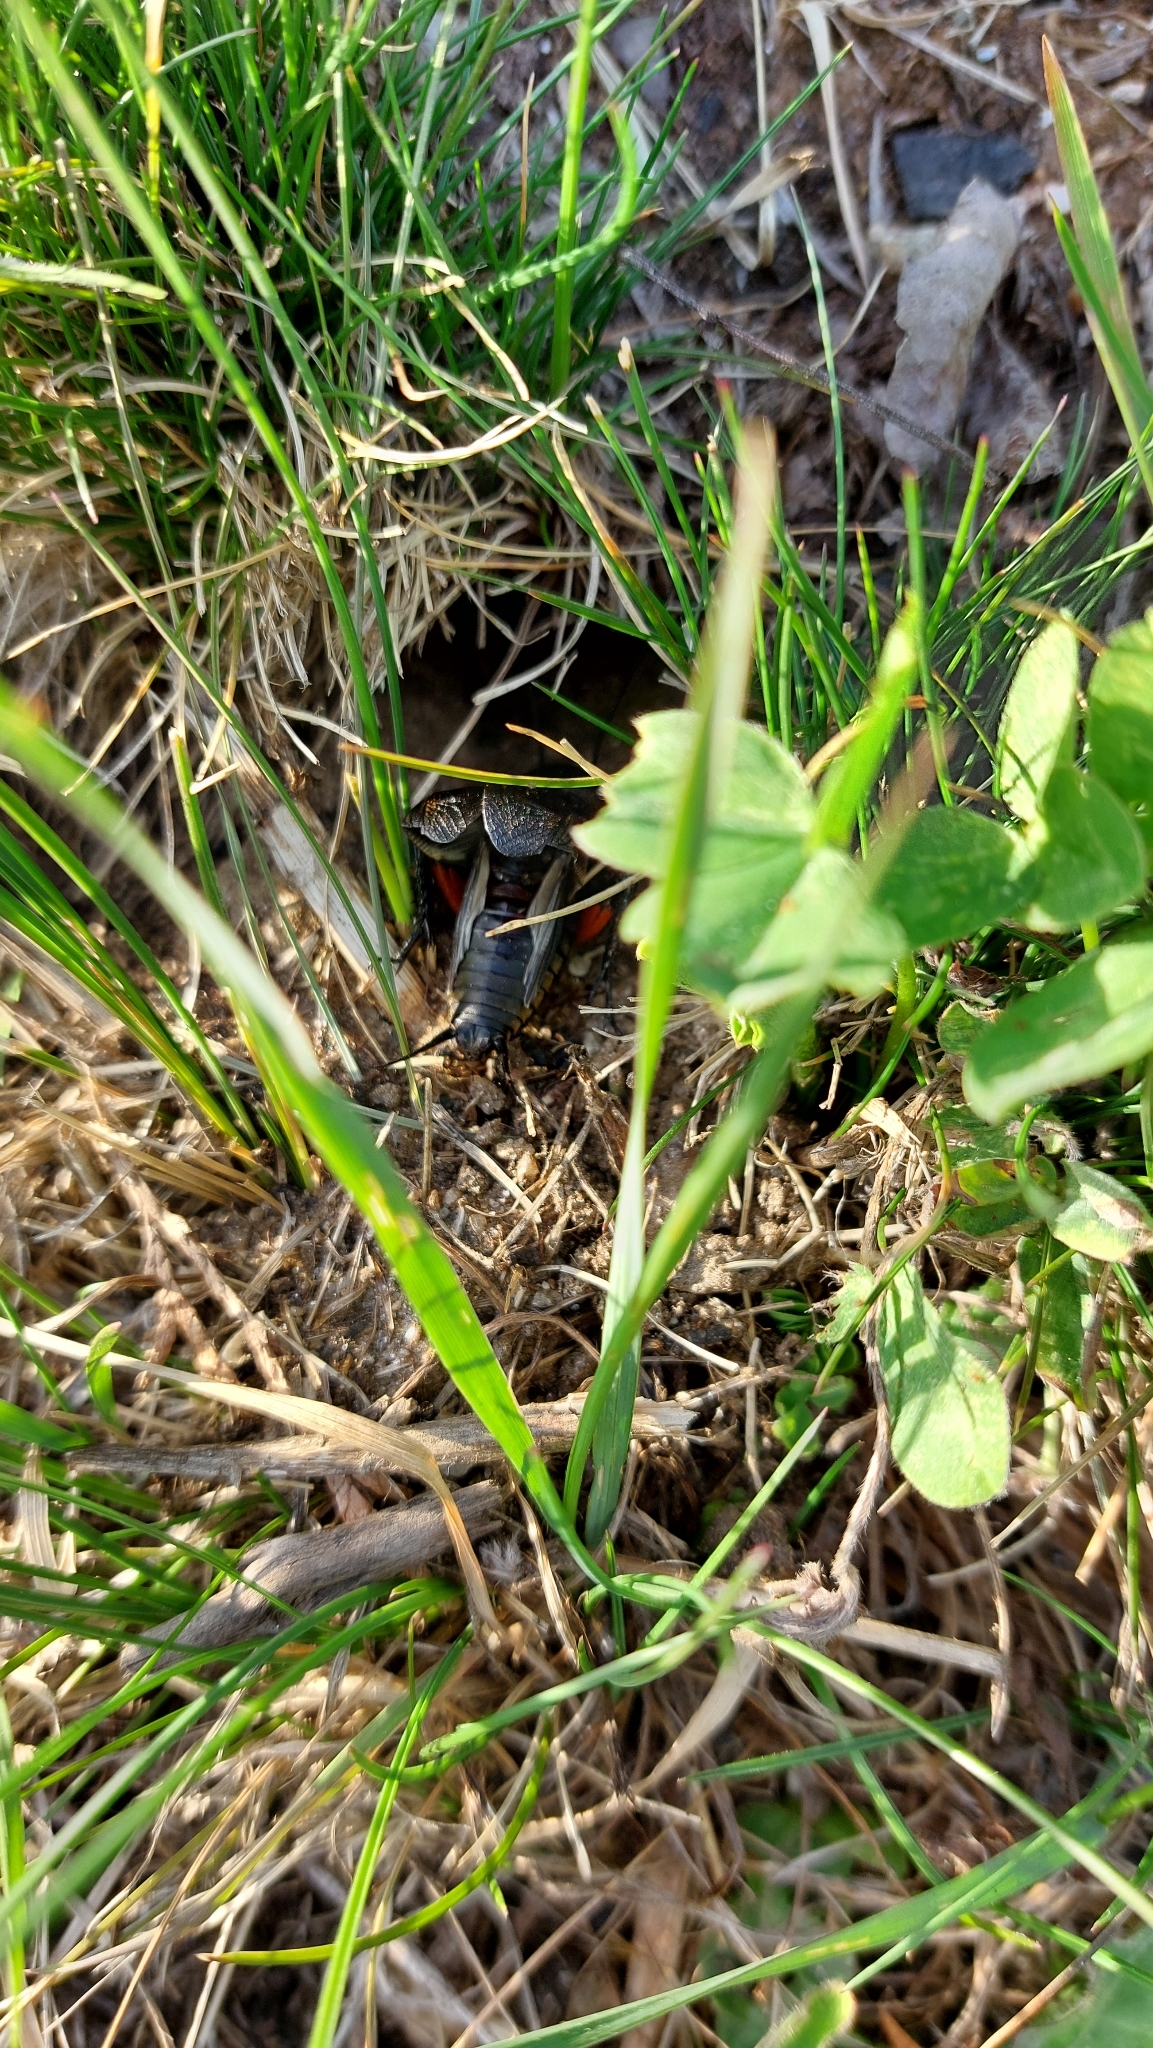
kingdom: Animalia
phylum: Arthropoda
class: Insecta
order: Orthoptera
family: Gryllidae
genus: Gryllus
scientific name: Gryllus campestris
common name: Field cricket
